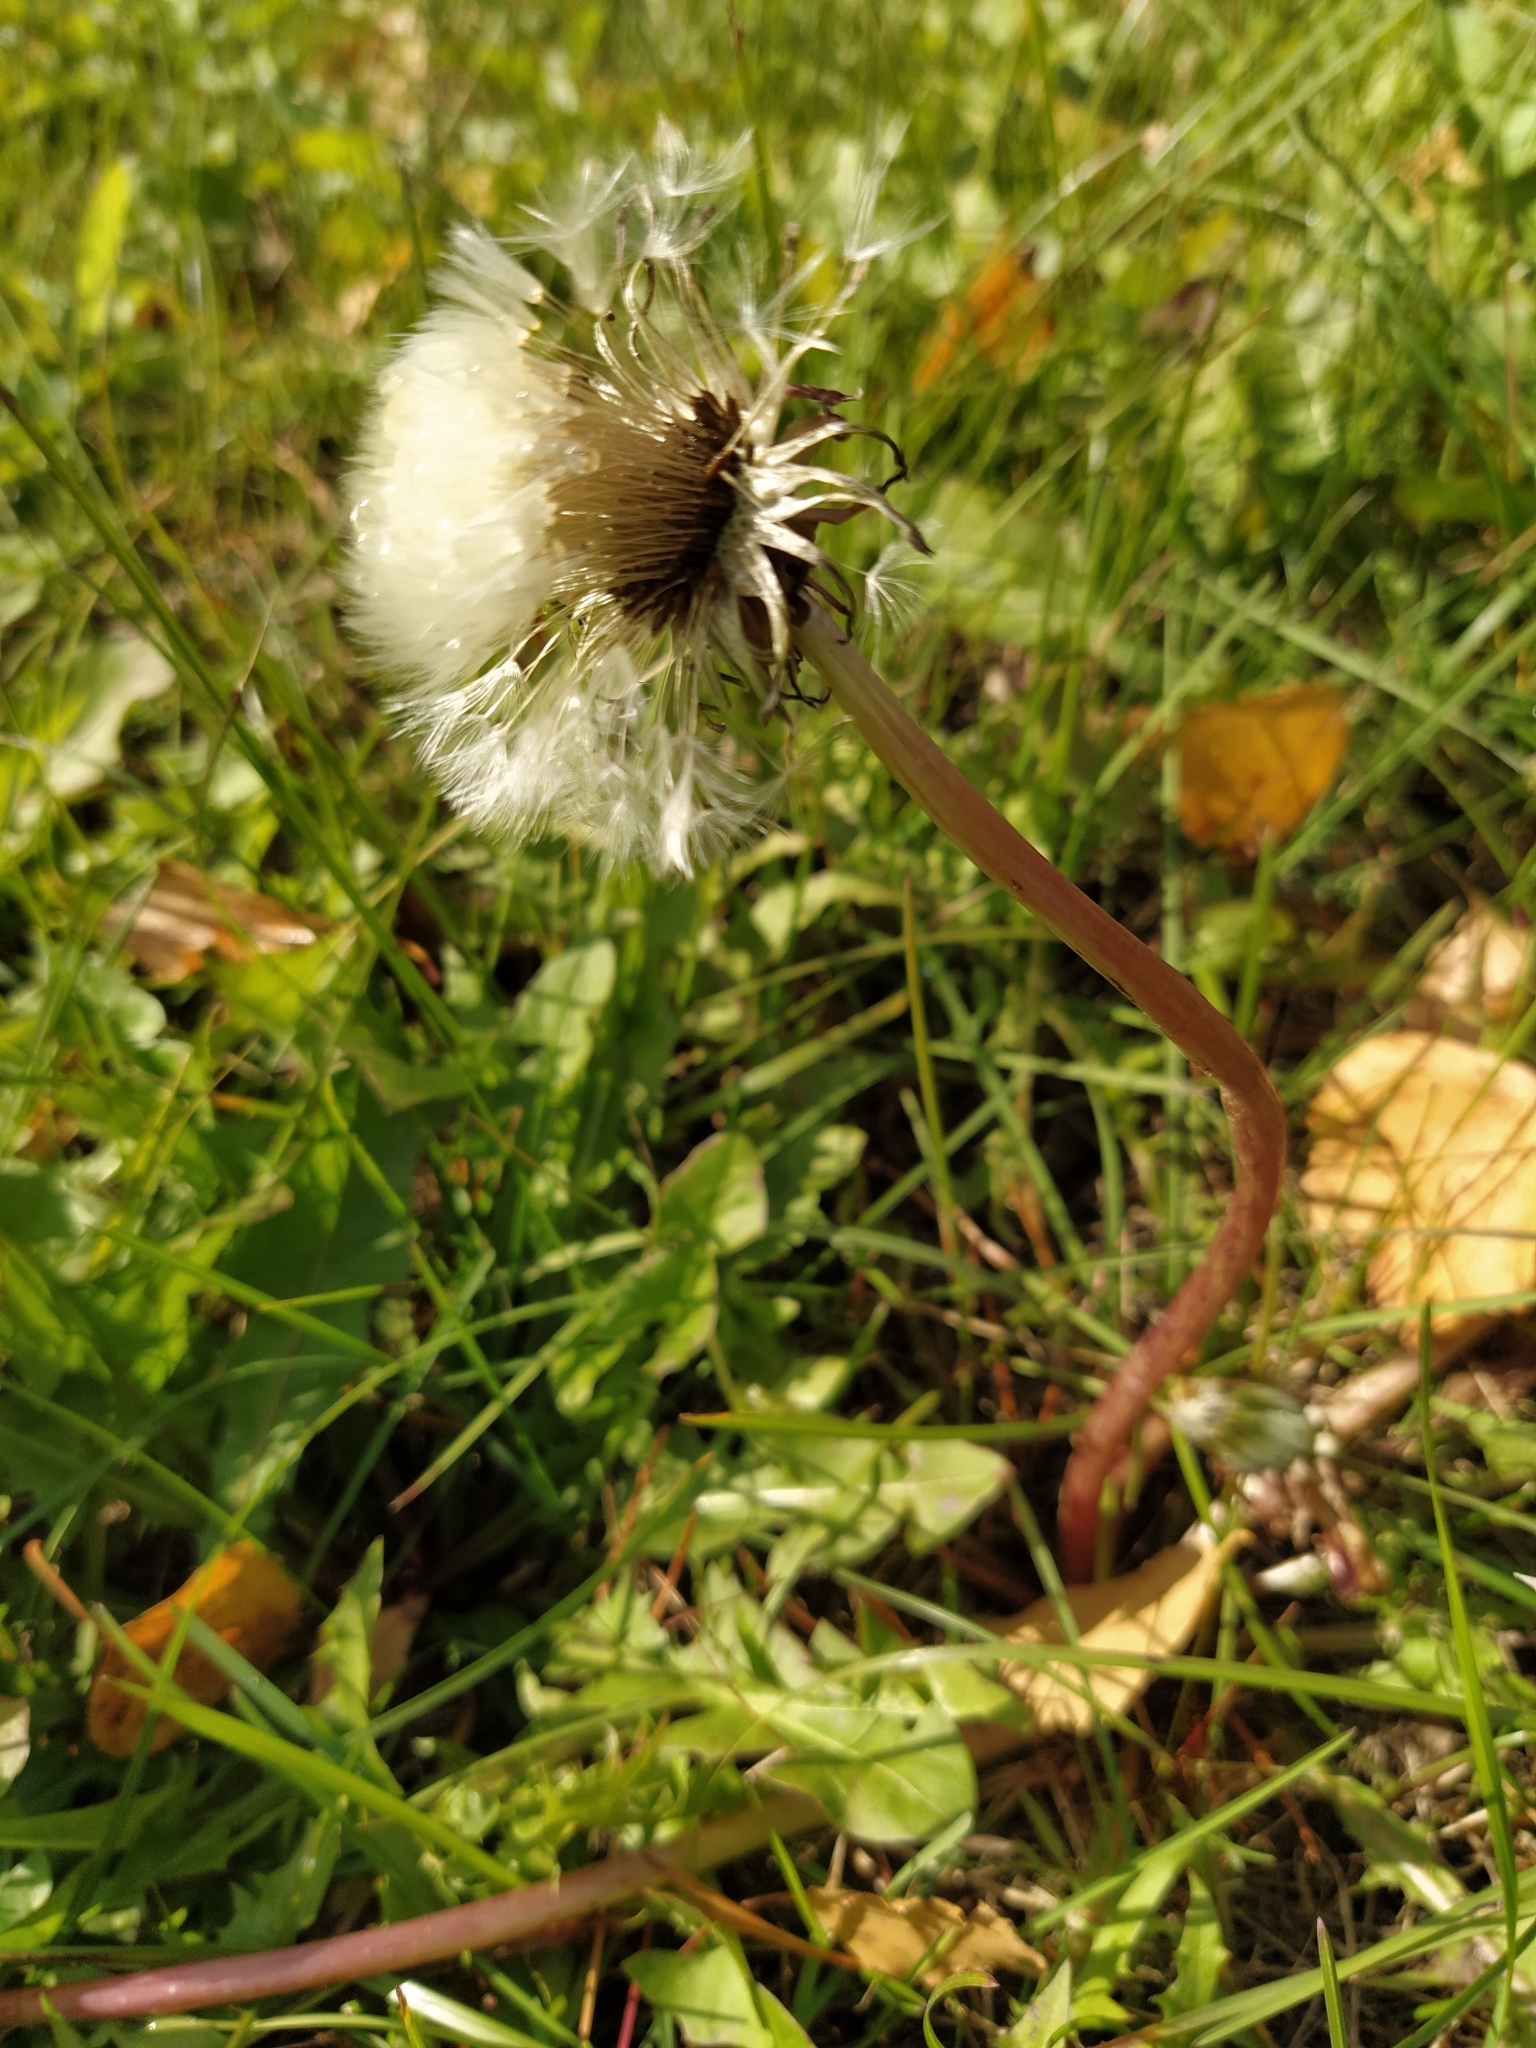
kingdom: Plantae
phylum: Tracheophyta
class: Magnoliopsida
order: Asterales
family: Asteraceae
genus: Taraxacum
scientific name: Taraxacum officinale
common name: Common dandelion
